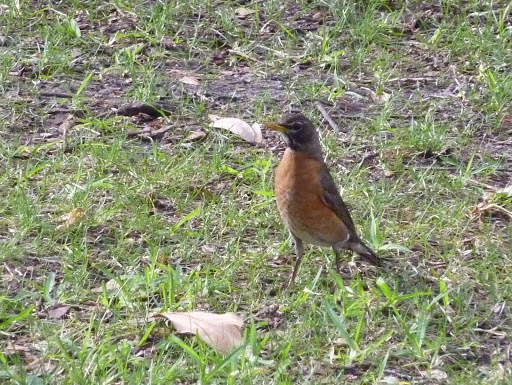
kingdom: Animalia
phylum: Chordata
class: Aves
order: Passeriformes
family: Turdidae
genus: Turdus
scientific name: Turdus migratorius
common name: American robin
